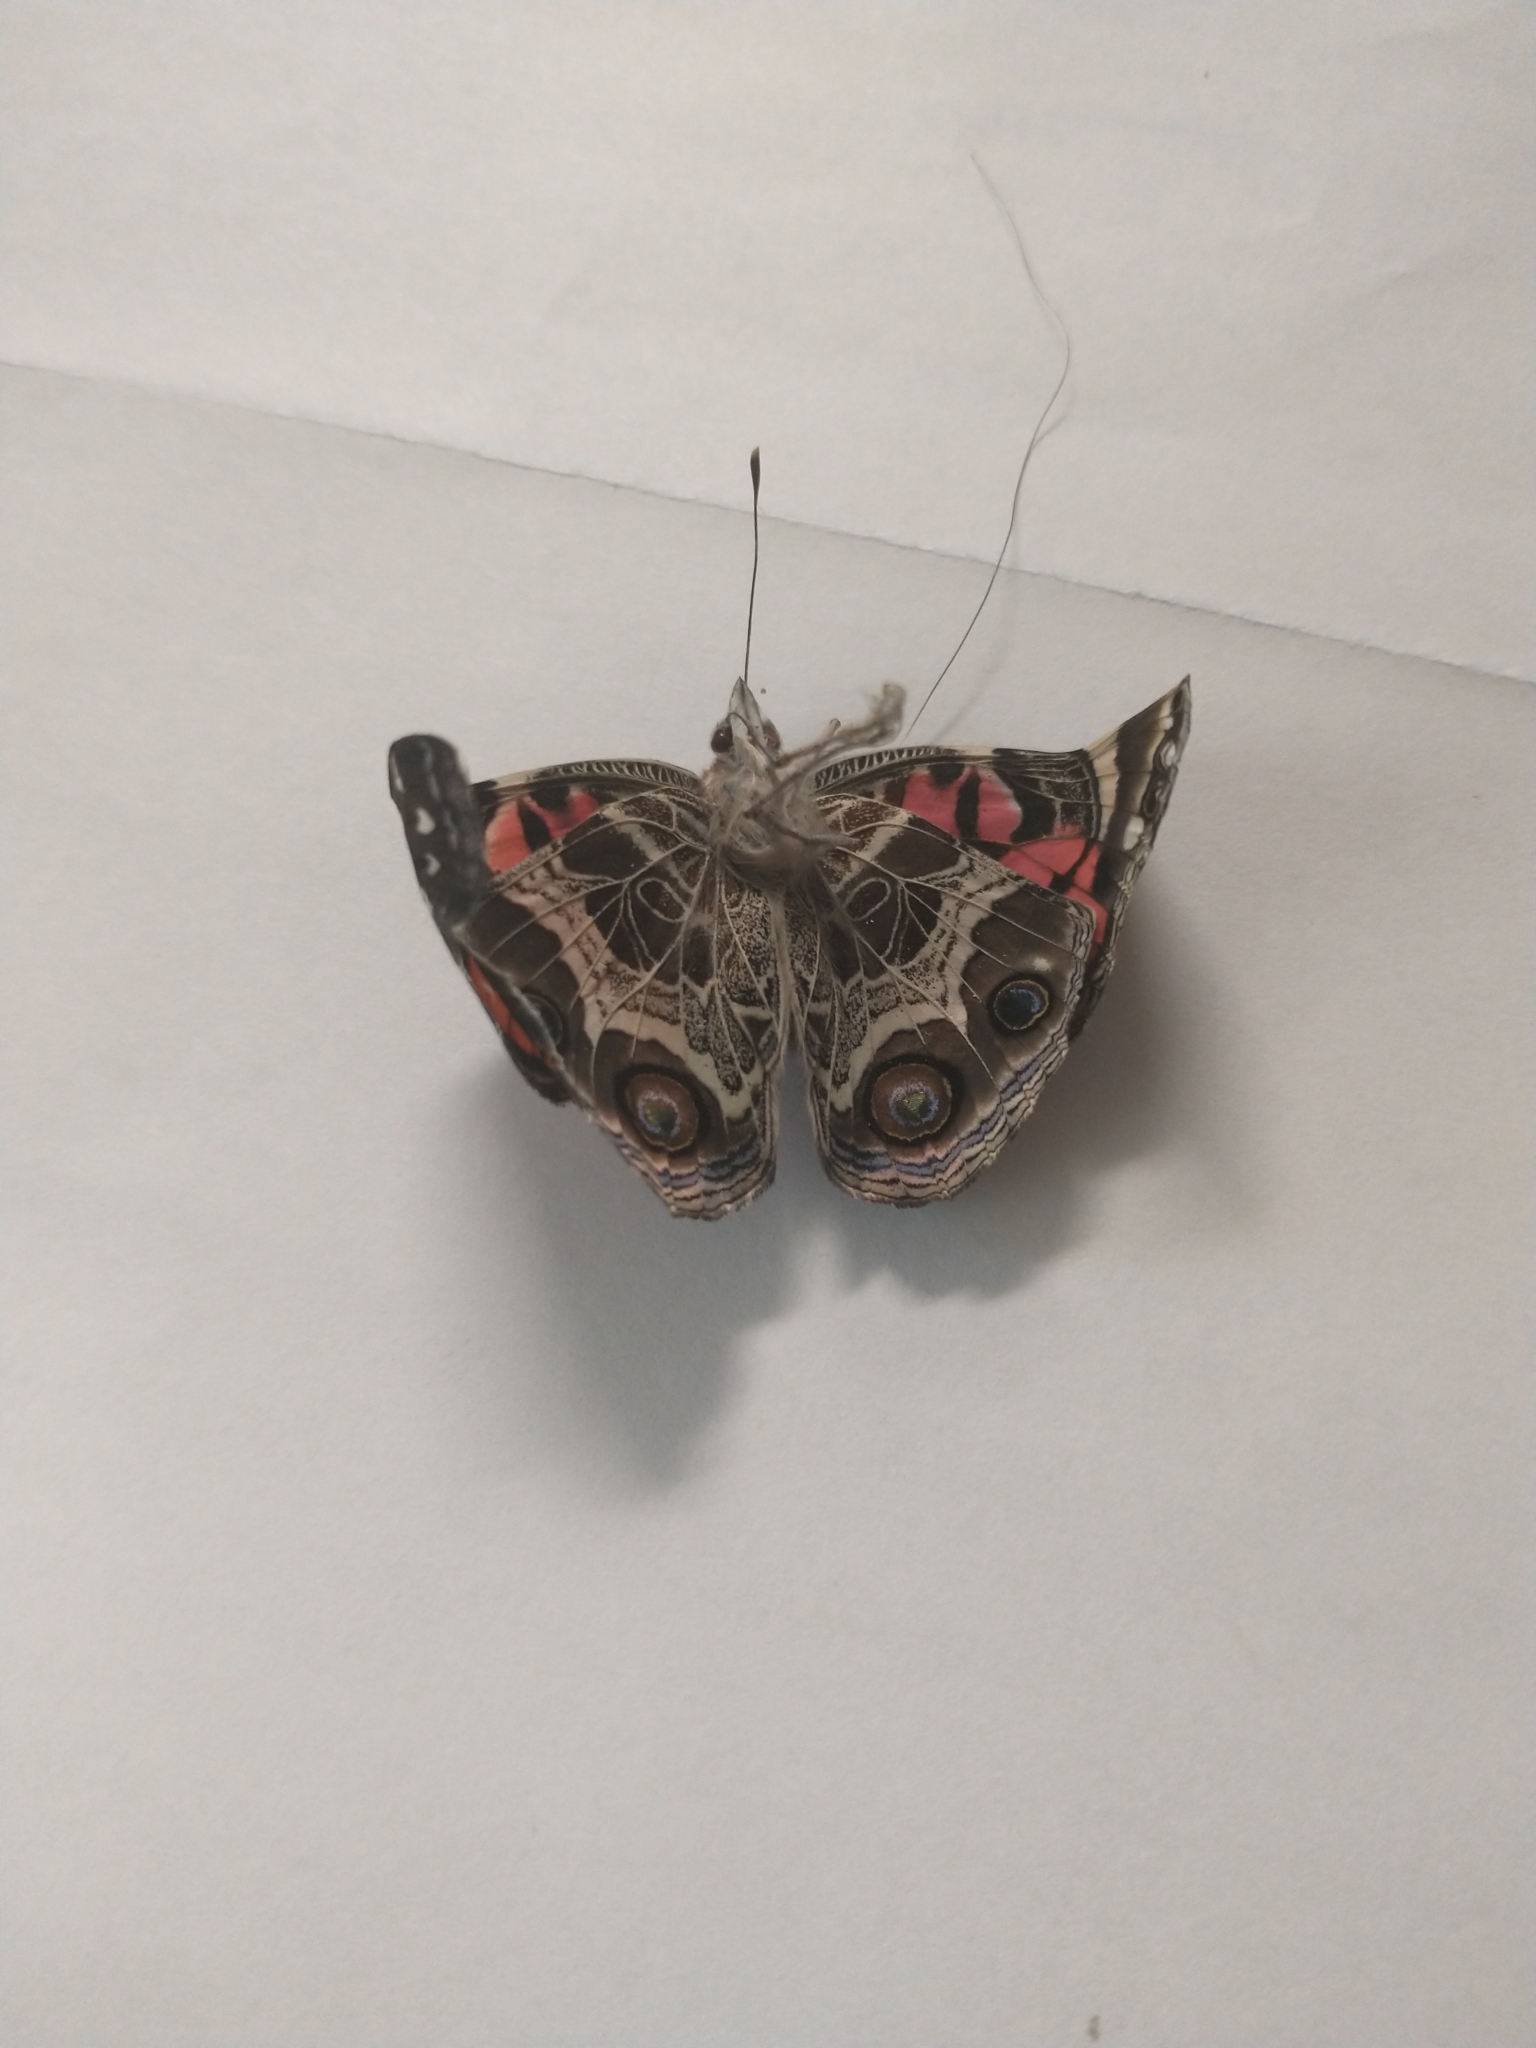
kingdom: Animalia
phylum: Arthropoda
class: Insecta
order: Lepidoptera
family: Nymphalidae
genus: Vanessa
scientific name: Vanessa virginiensis
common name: American lady
